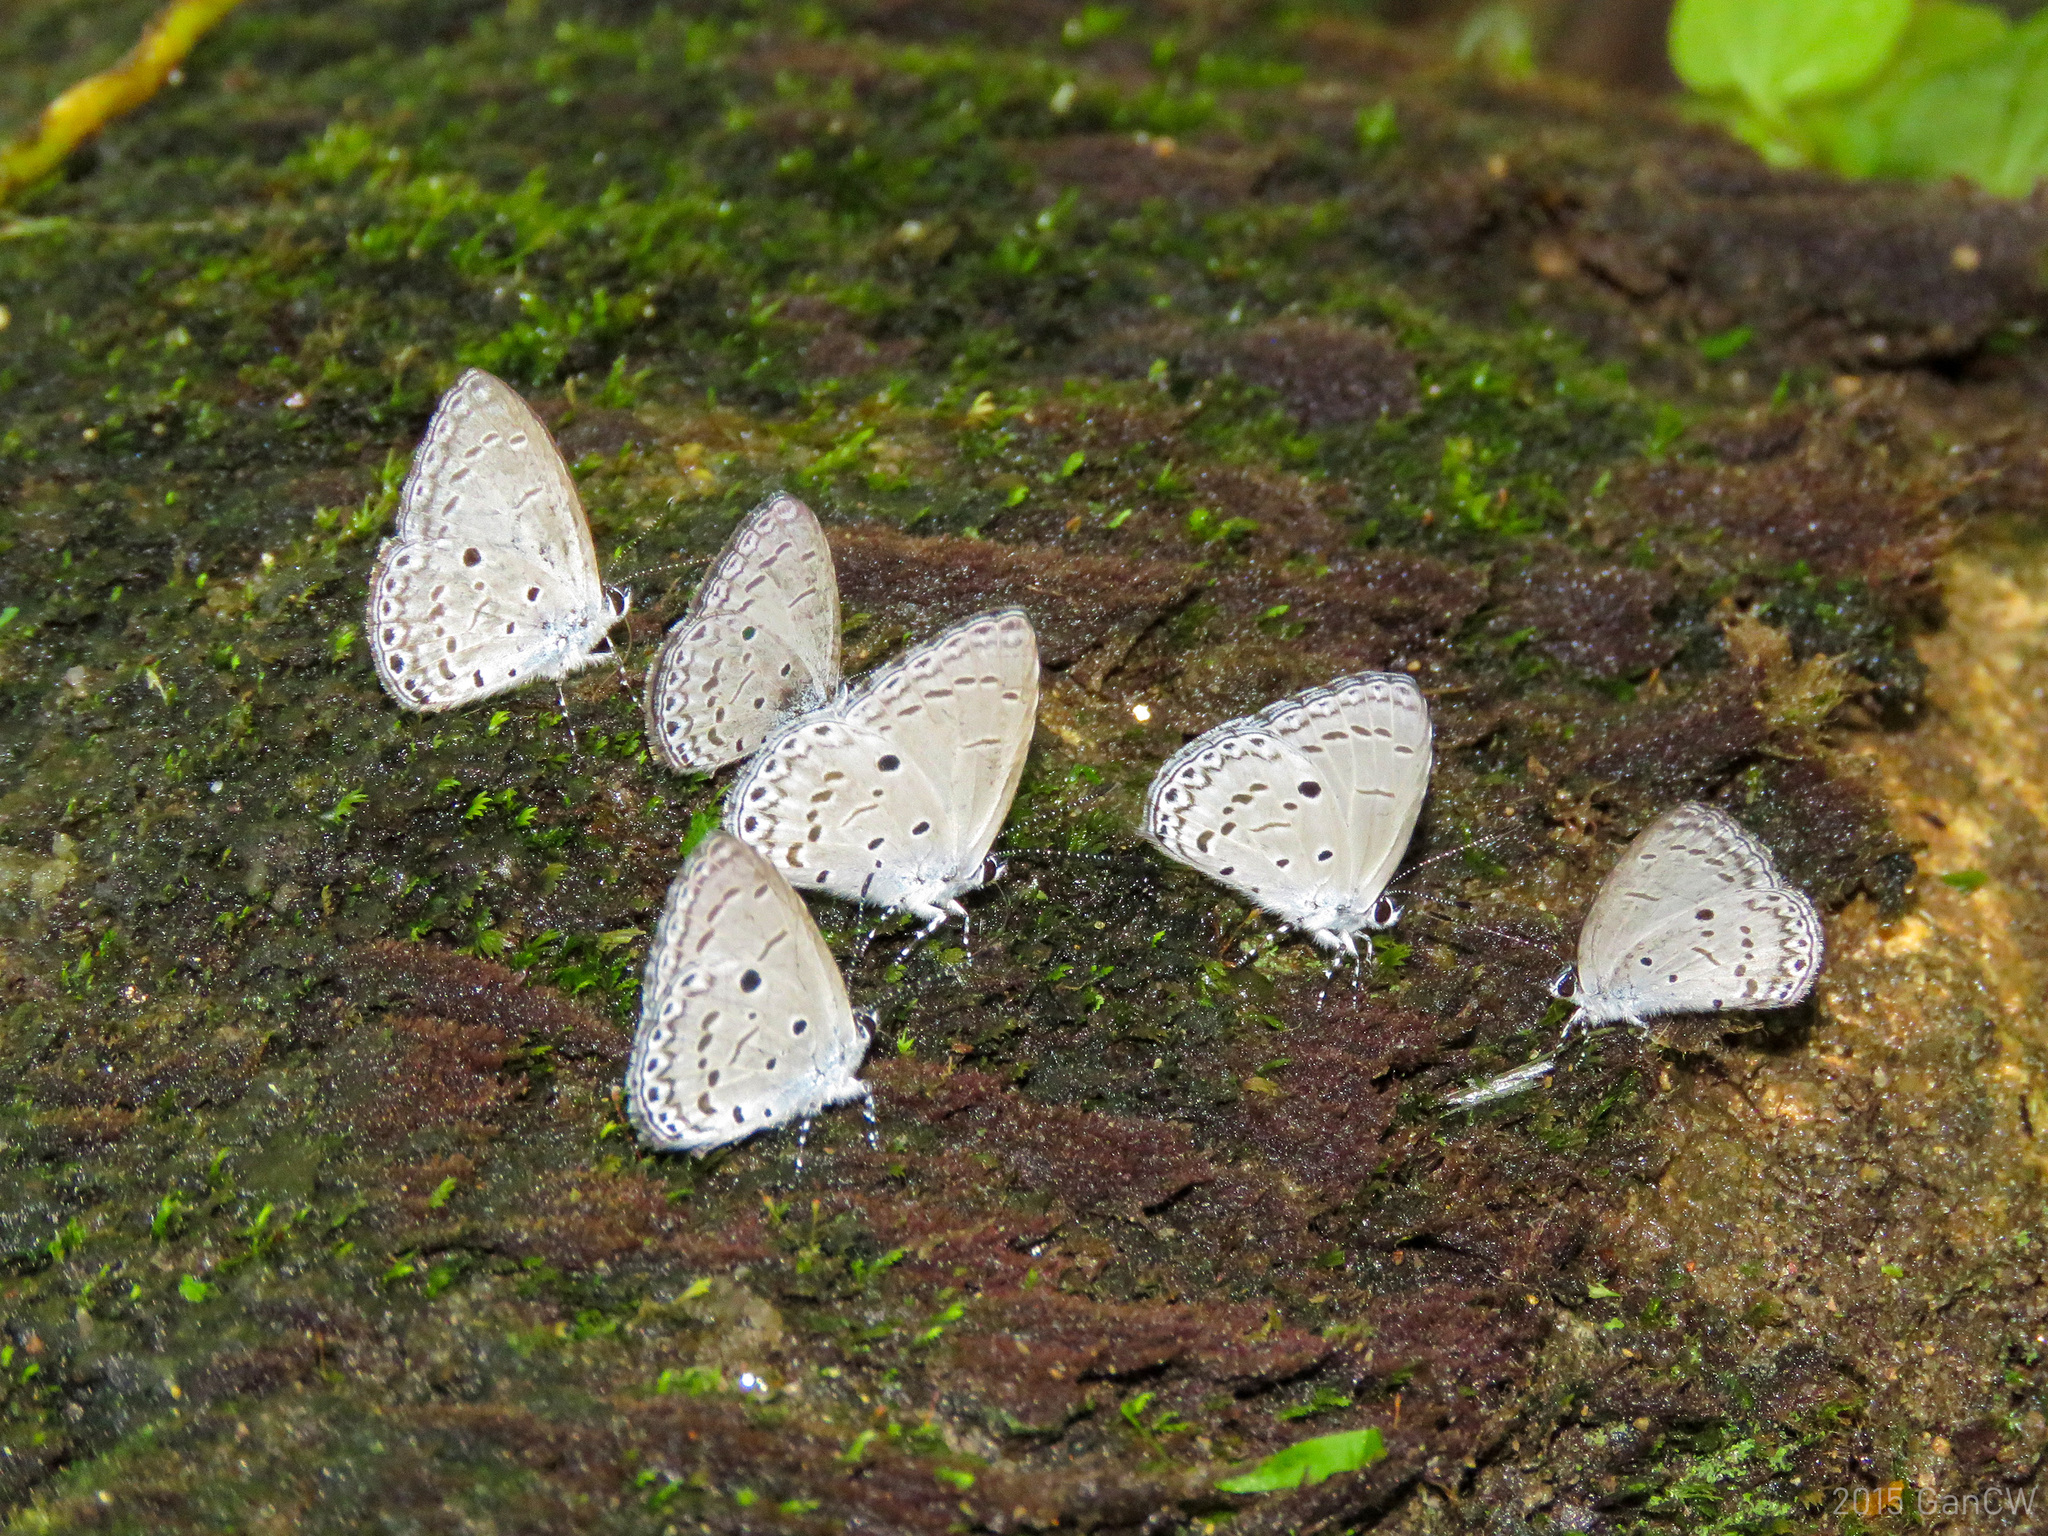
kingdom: Animalia
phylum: Arthropoda
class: Insecta
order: Lepidoptera
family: Lycaenidae
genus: Udara
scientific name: Udara
